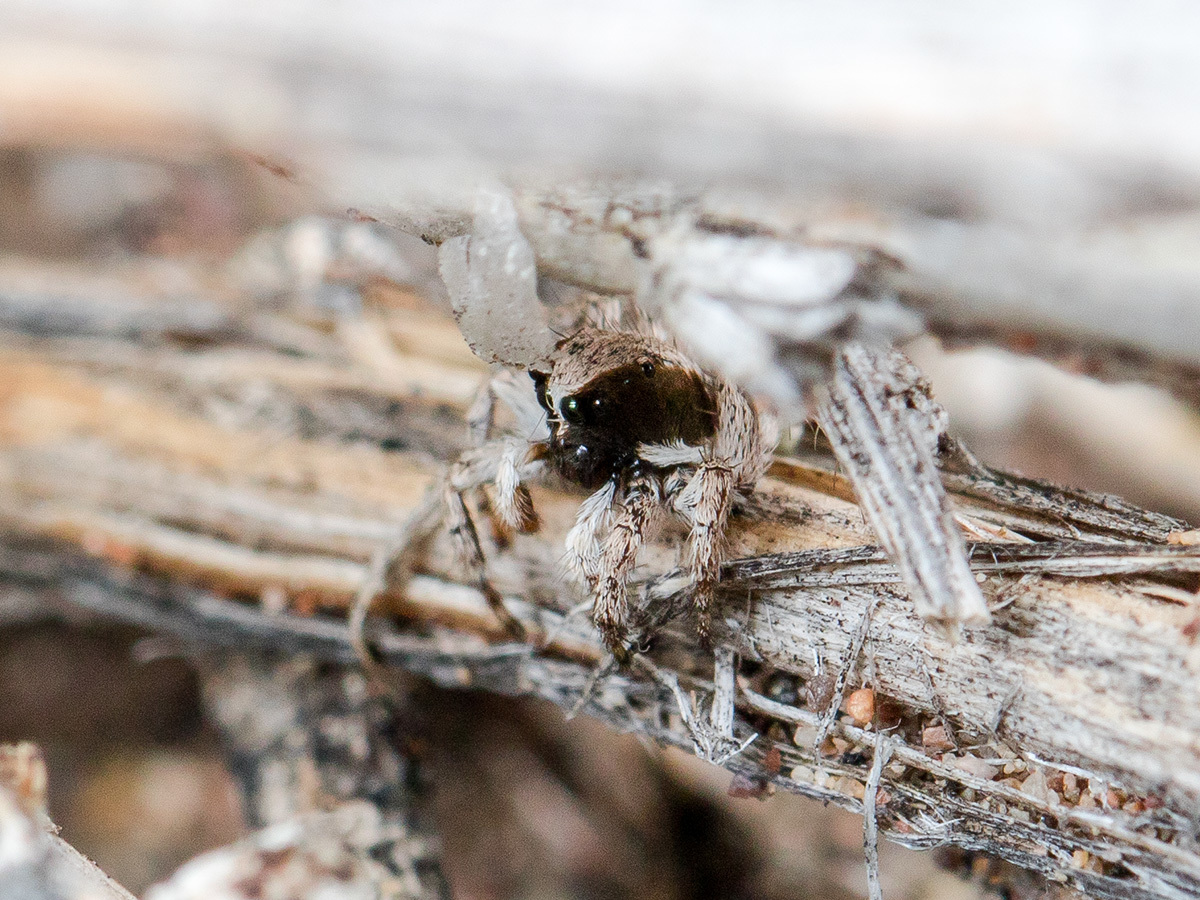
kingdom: Animalia
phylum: Arthropoda
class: Arachnida
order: Araneae
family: Salticidae
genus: Aelurillus
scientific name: Aelurillus andreevae
